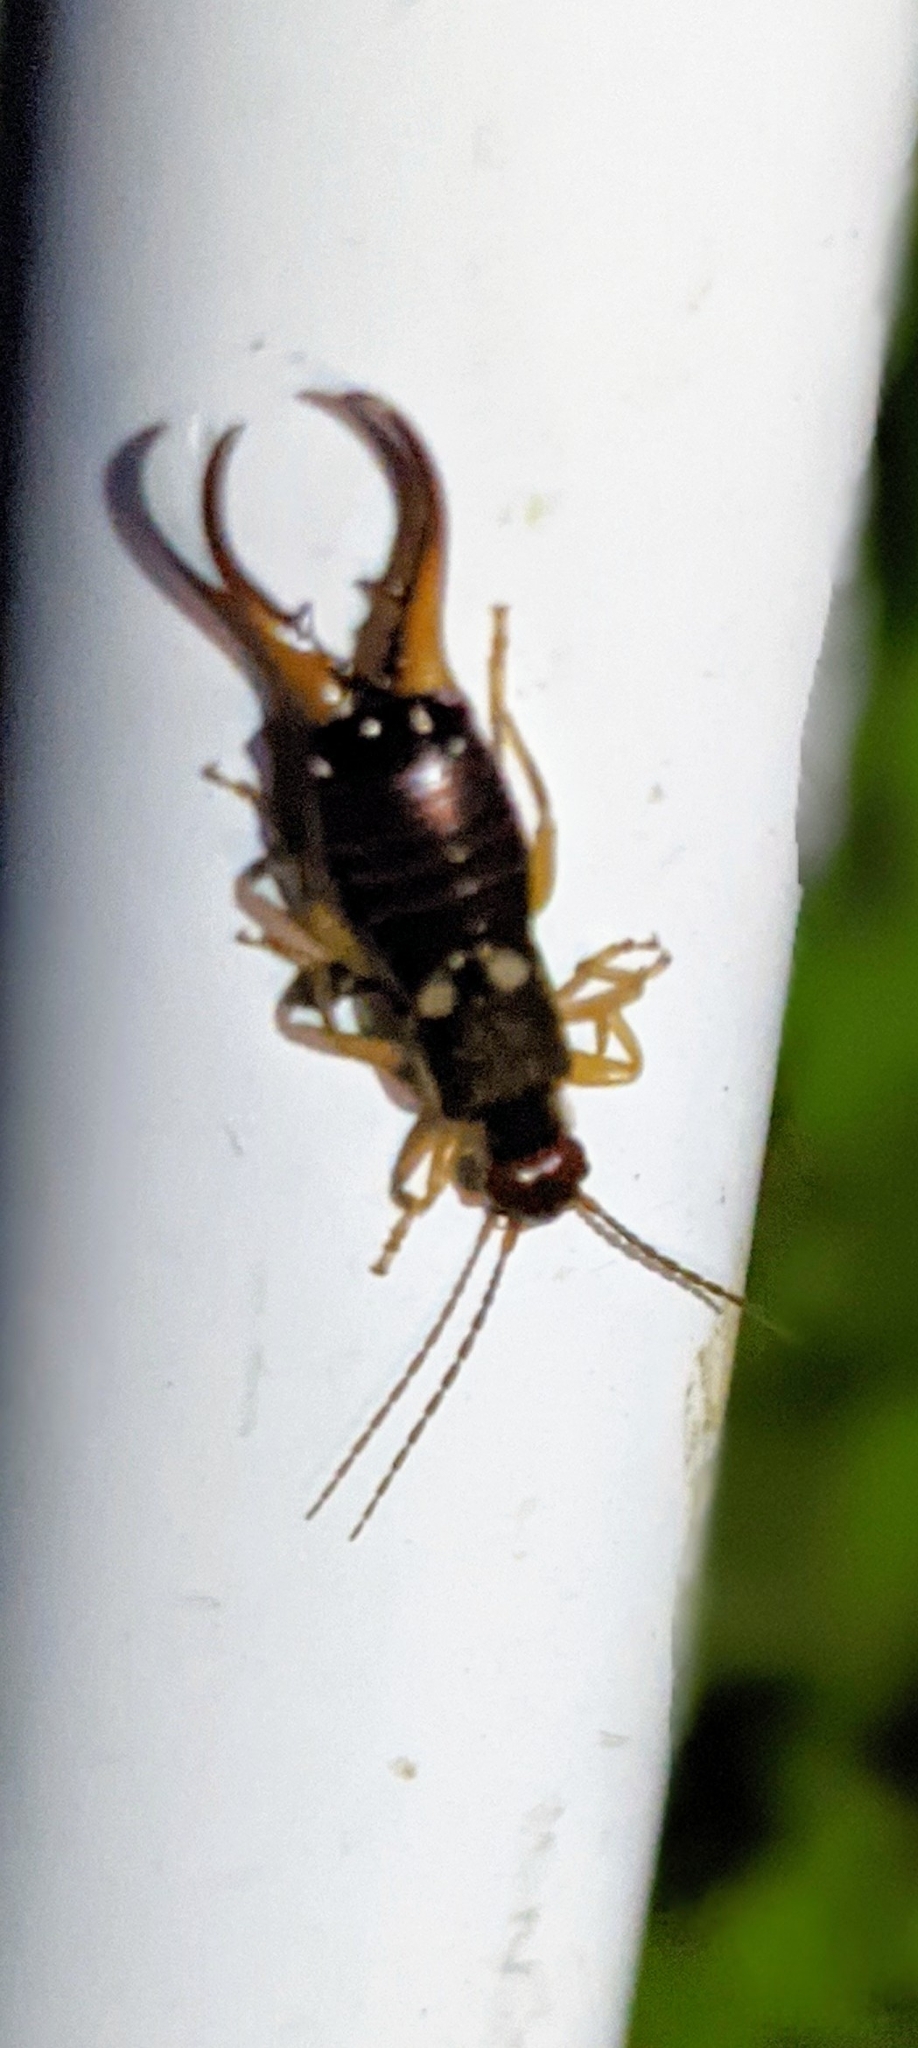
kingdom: Animalia
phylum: Arthropoda
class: Insecta
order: Dermaptera
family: Forficulidae
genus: Forficula
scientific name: Forficula
